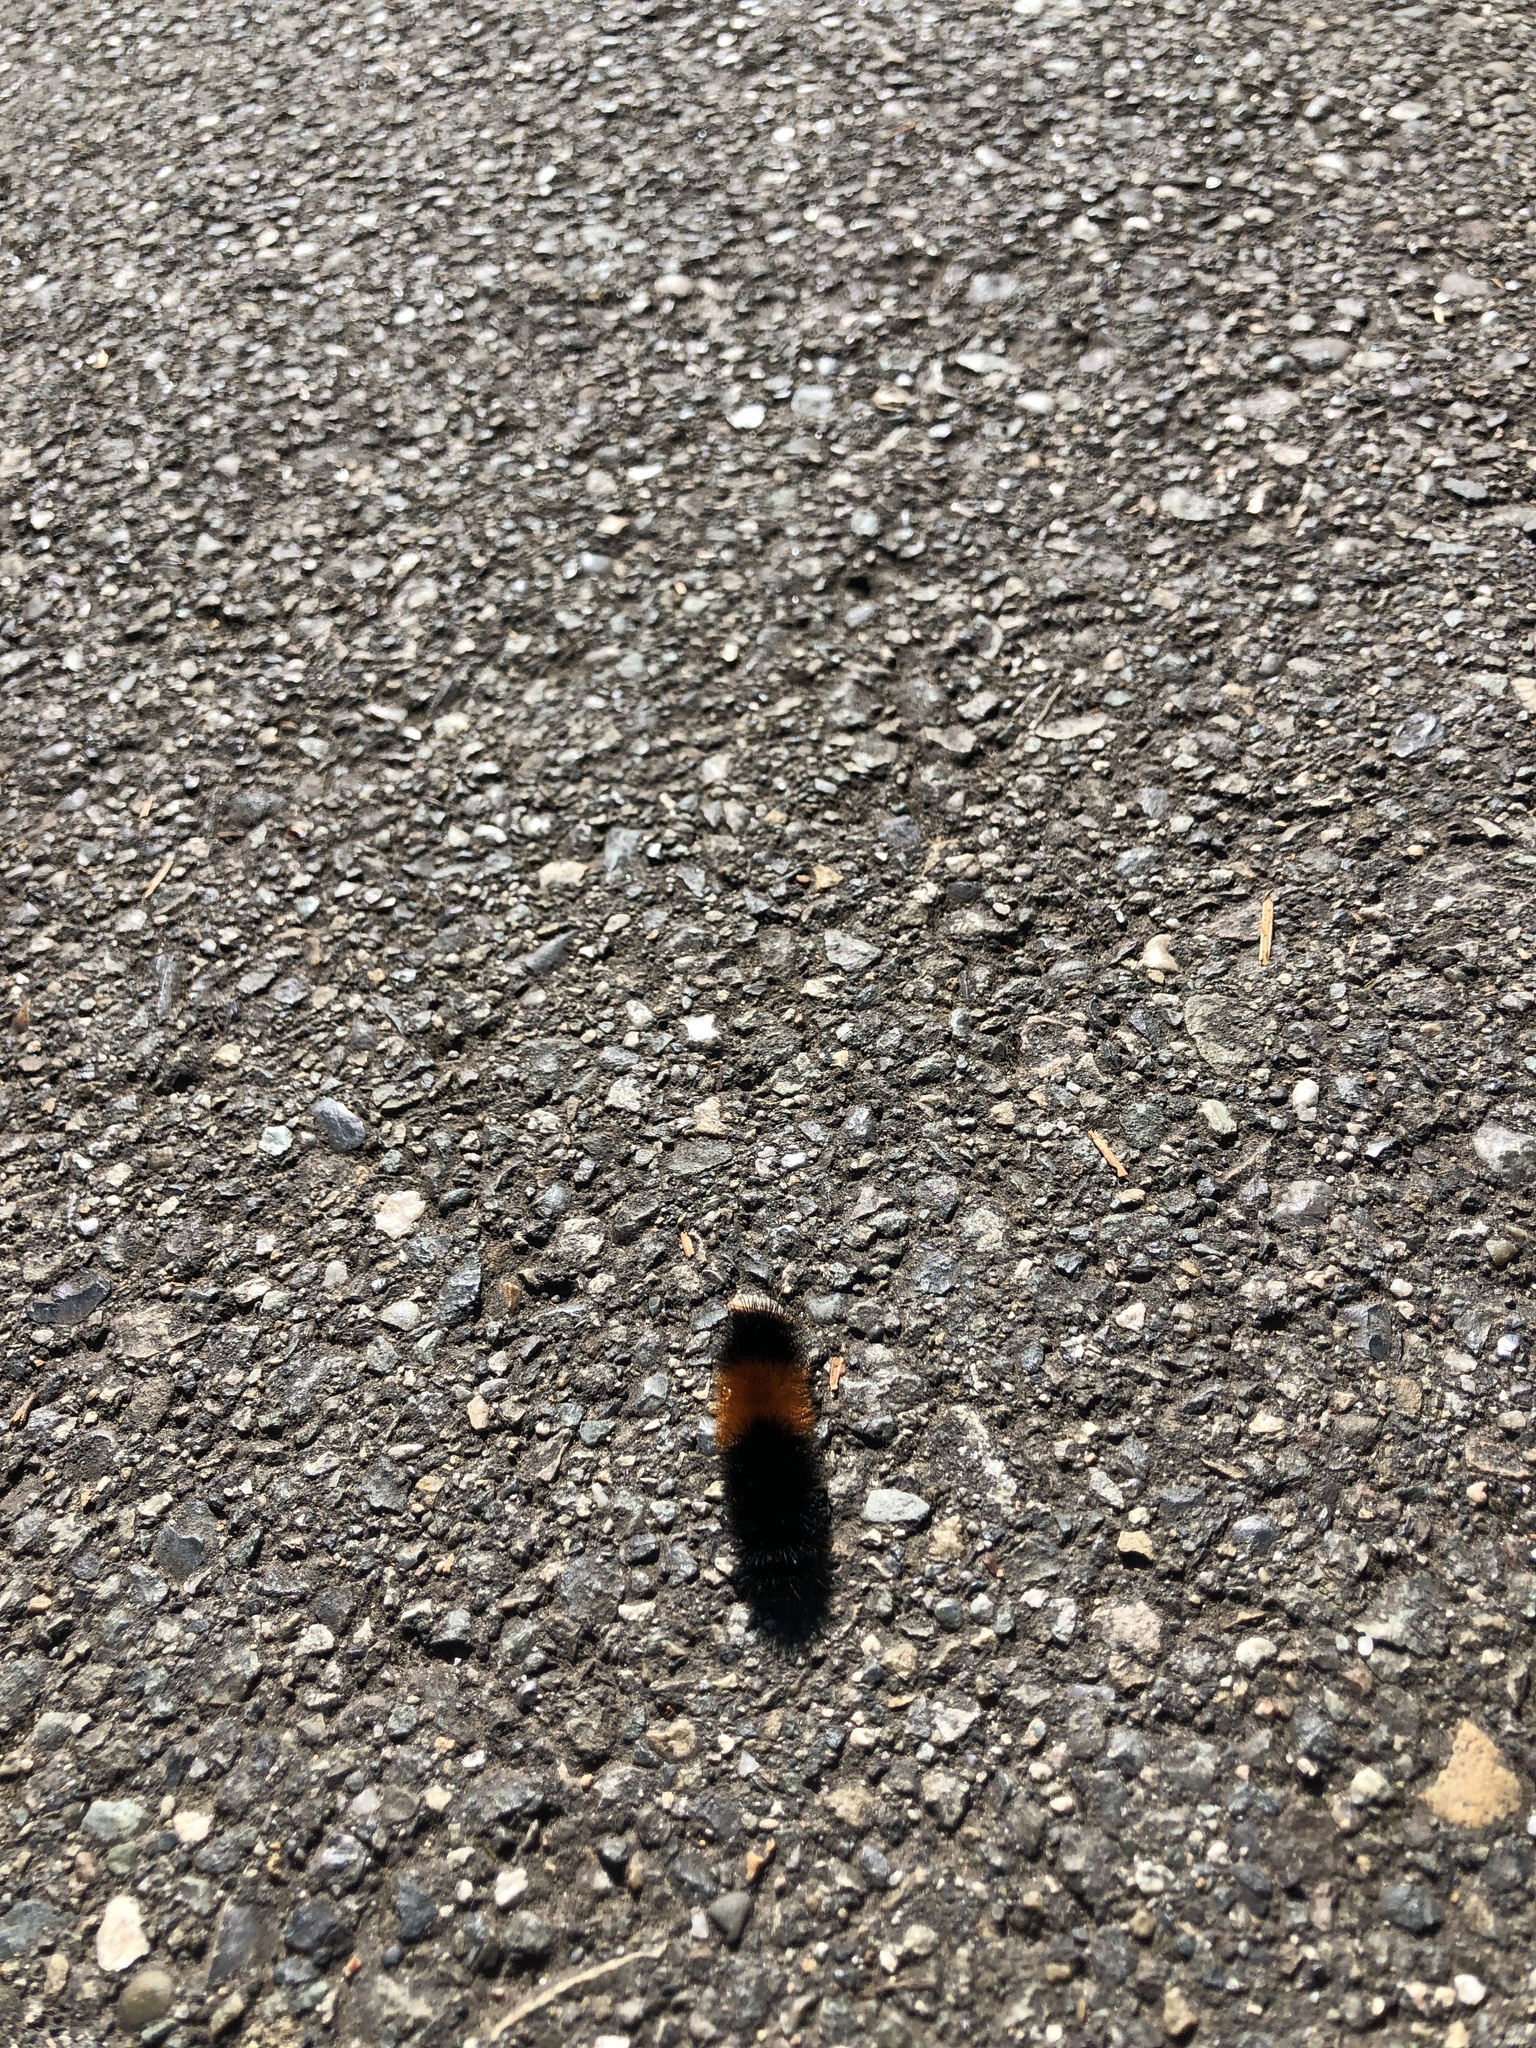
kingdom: Animalia
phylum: Arthropoda
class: Insecta
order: Lepidoptera
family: Erebidae
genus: Pyrrharctia
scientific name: Pyrrharctia isabella
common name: Isabella tiger moth
